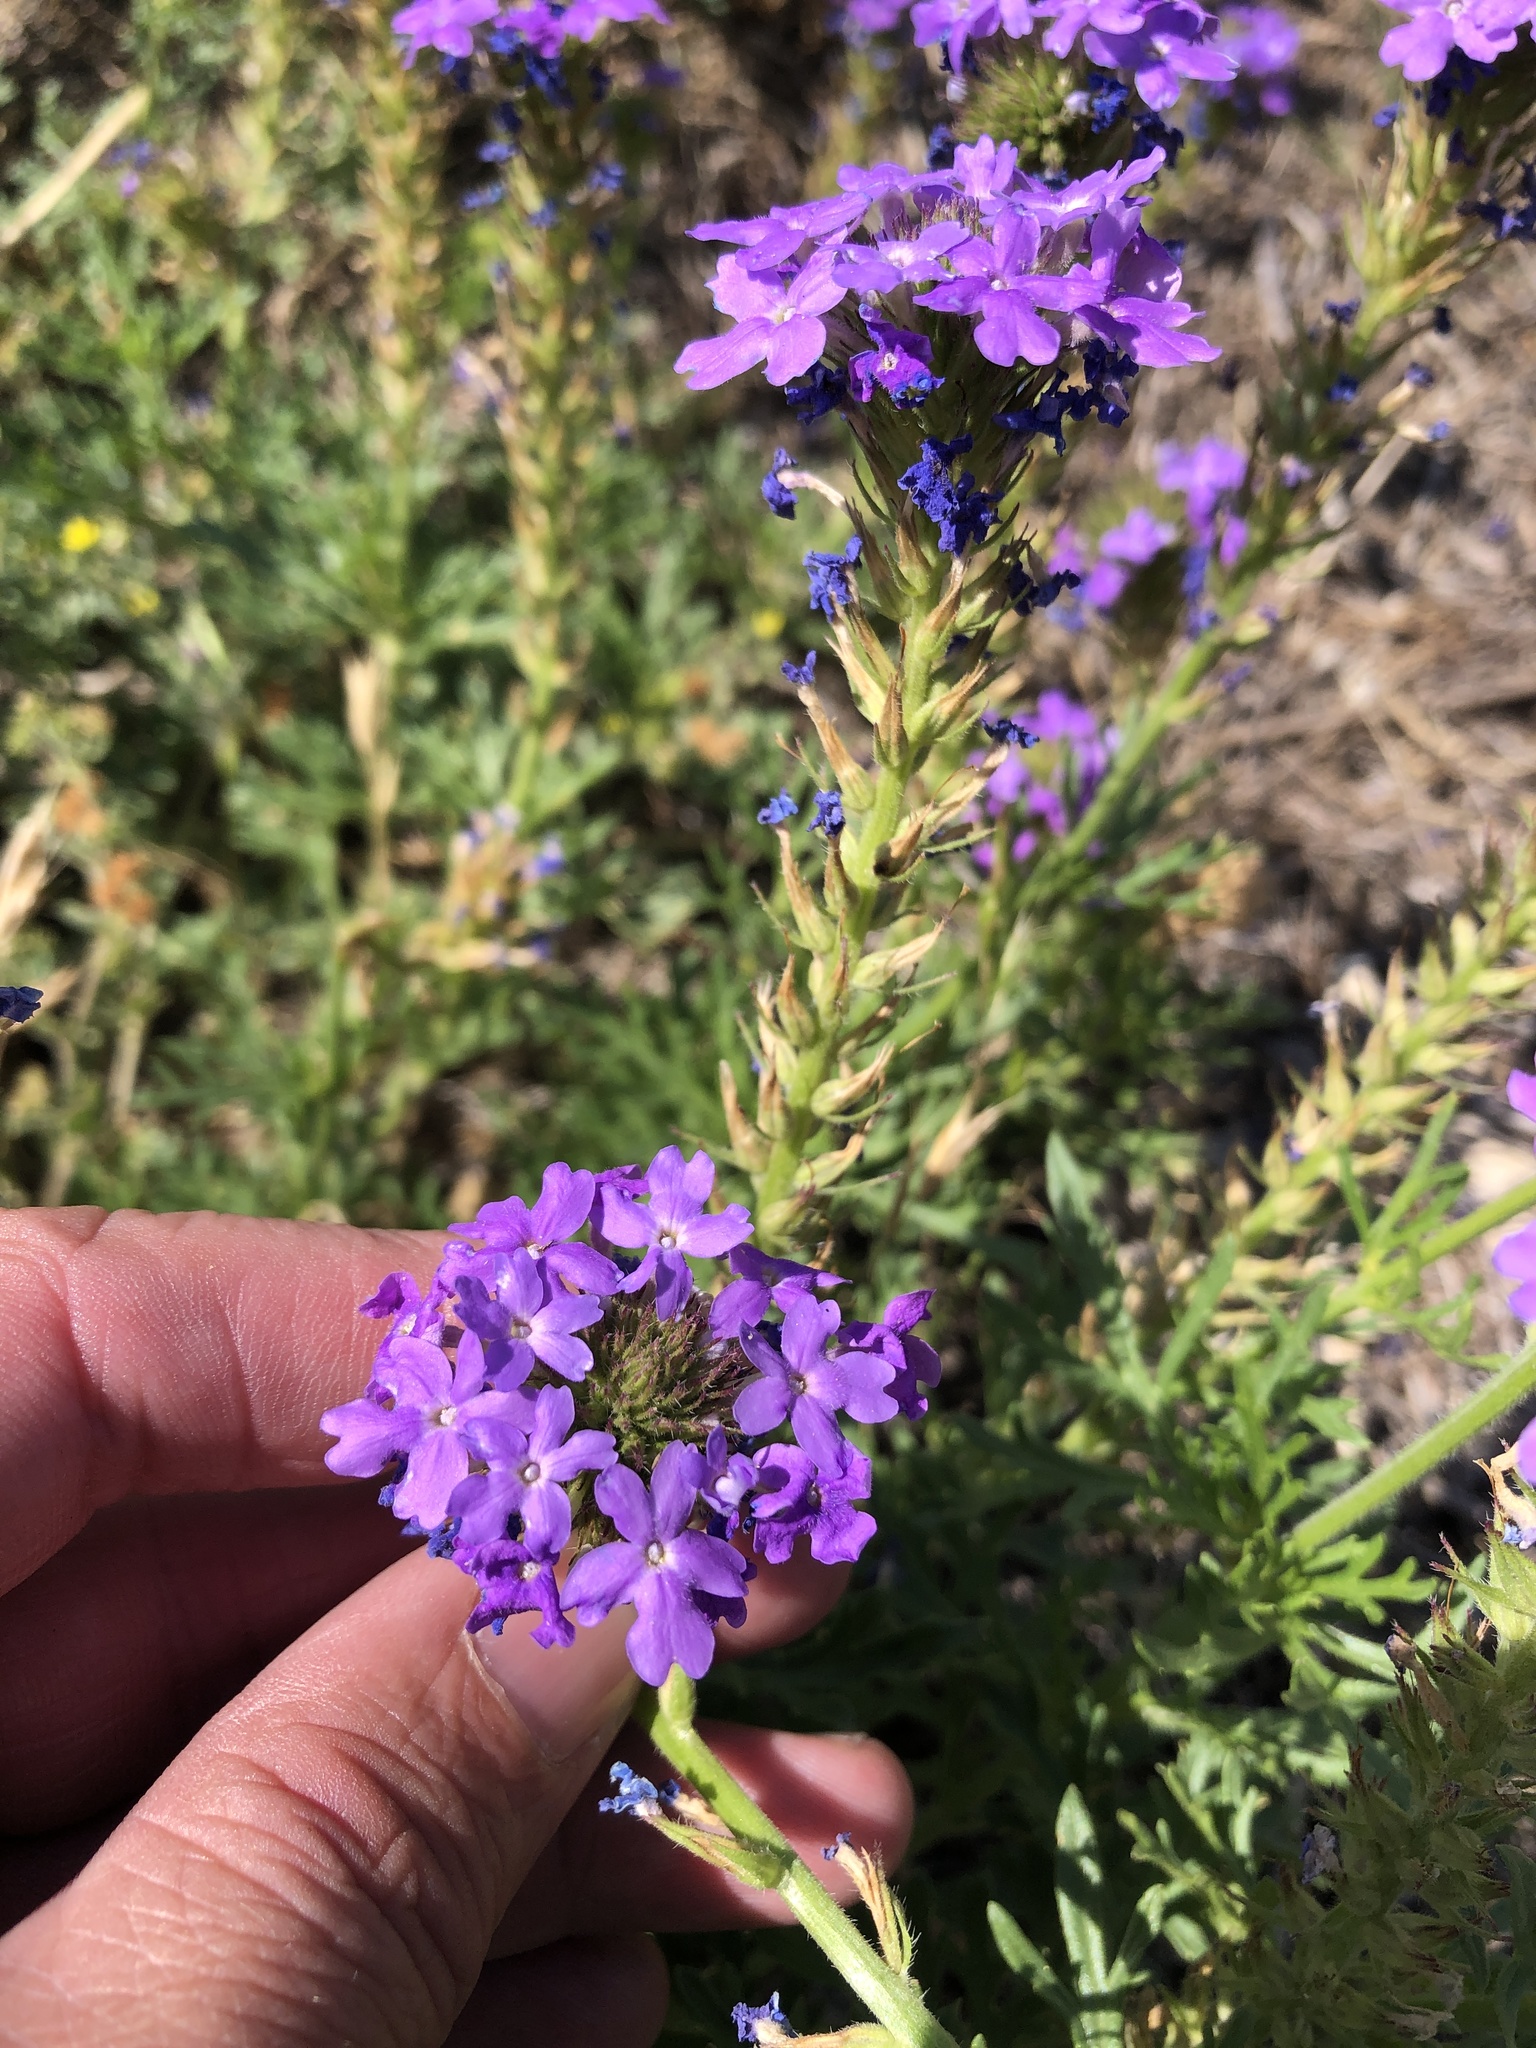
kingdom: Plantae
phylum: Tracheophyta
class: Magnoliopsida
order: Lamiales
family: Verbenaceae
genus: Verbena
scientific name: Verbena bipinnatifida
